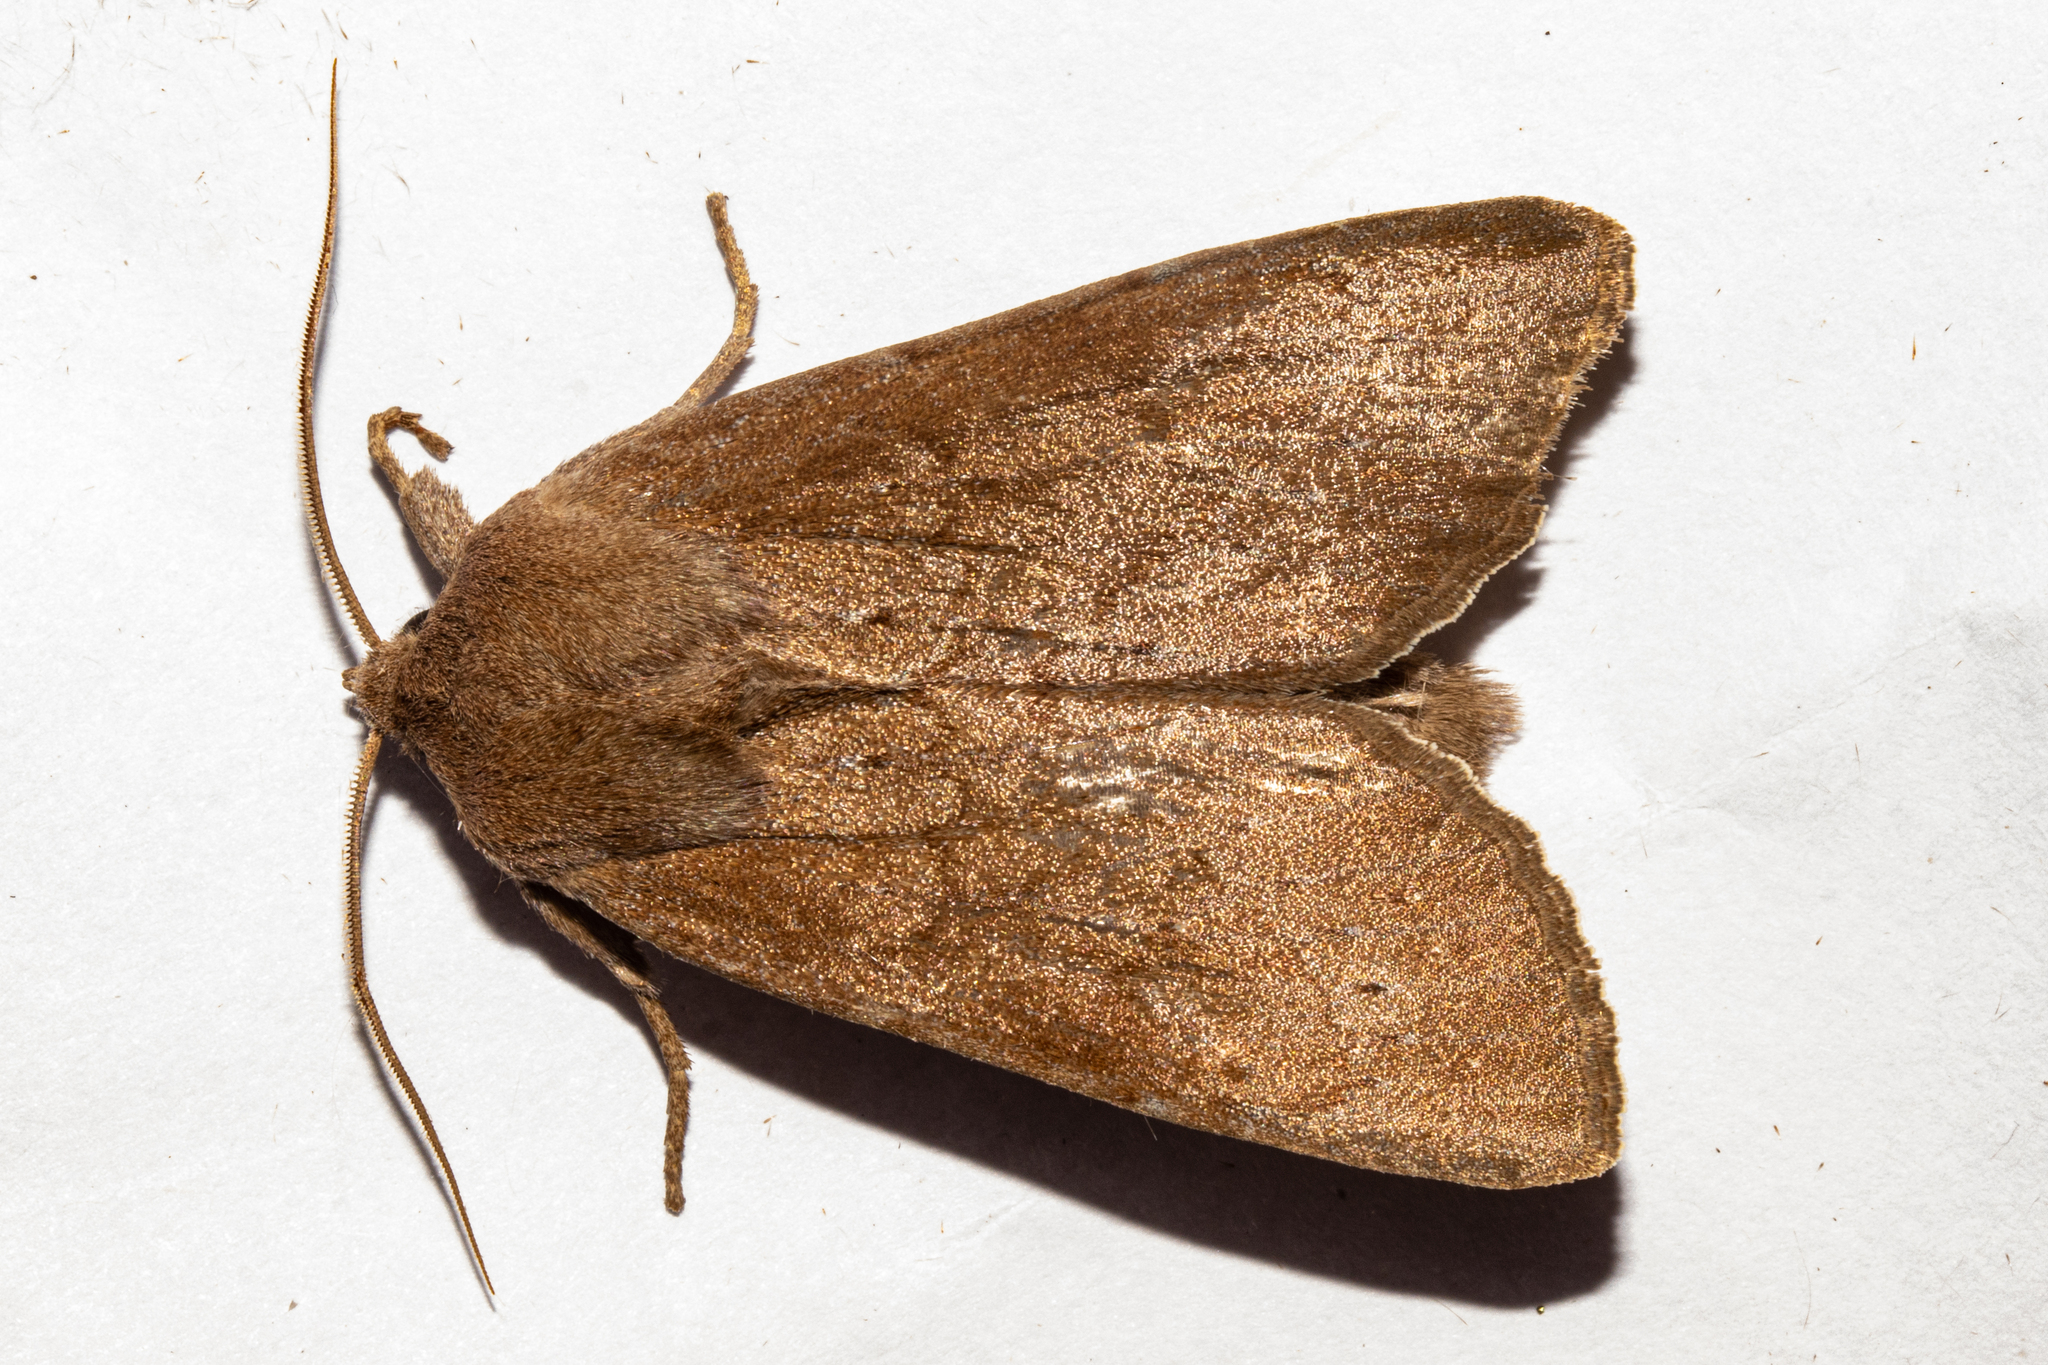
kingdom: Animalia
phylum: Arthropoda
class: Insecta
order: Lepidoptera
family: Noctuidae
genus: Ichneutica
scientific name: Ichneutica nullifera
